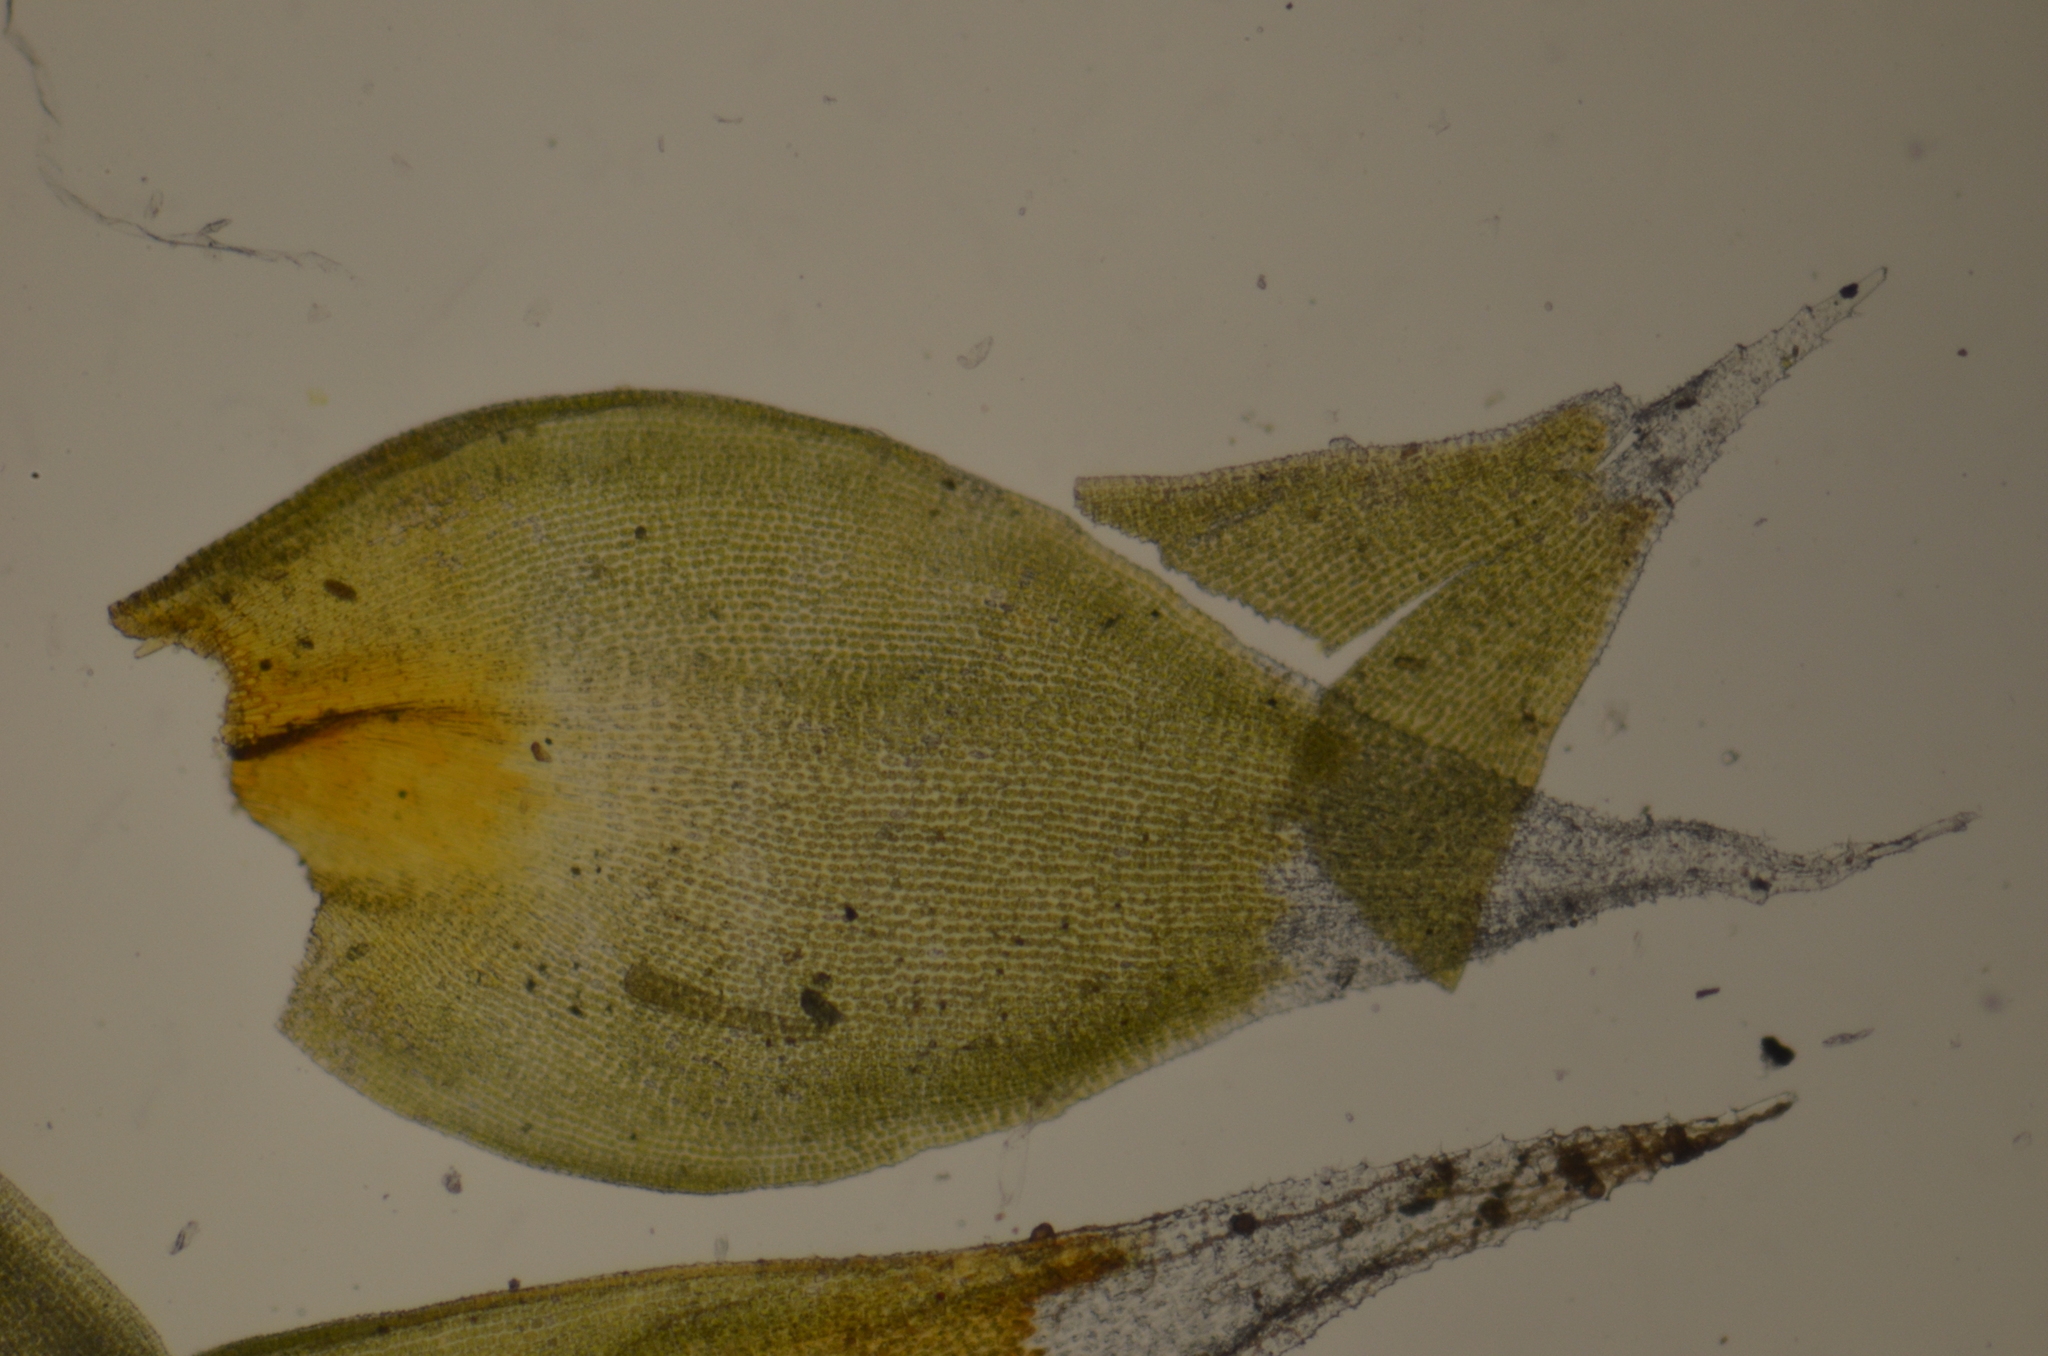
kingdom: Plantae
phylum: Bryophyta
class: Bryopsida
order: Hedwigiales
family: Hedwigiaceae
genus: Hedwigia
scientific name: Hedwigia ciliata
